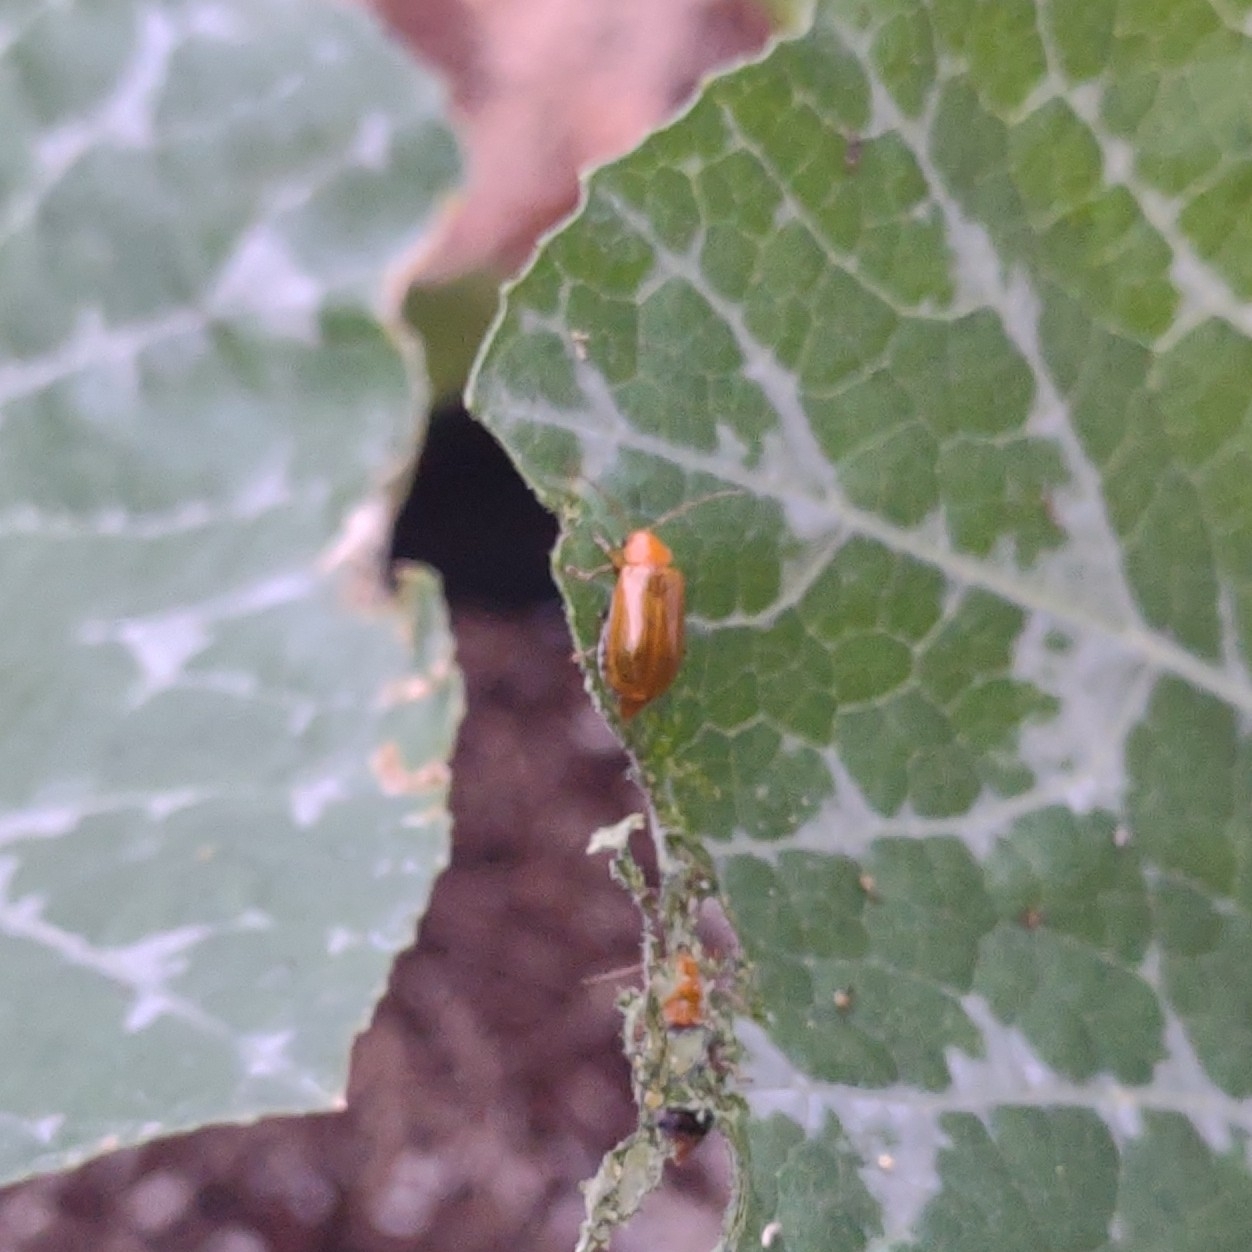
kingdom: Animalia
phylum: Arthropoda
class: Insecta
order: Coleoptera
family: Chrysomelidae
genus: Aulacophora
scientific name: Aulacophora indica
